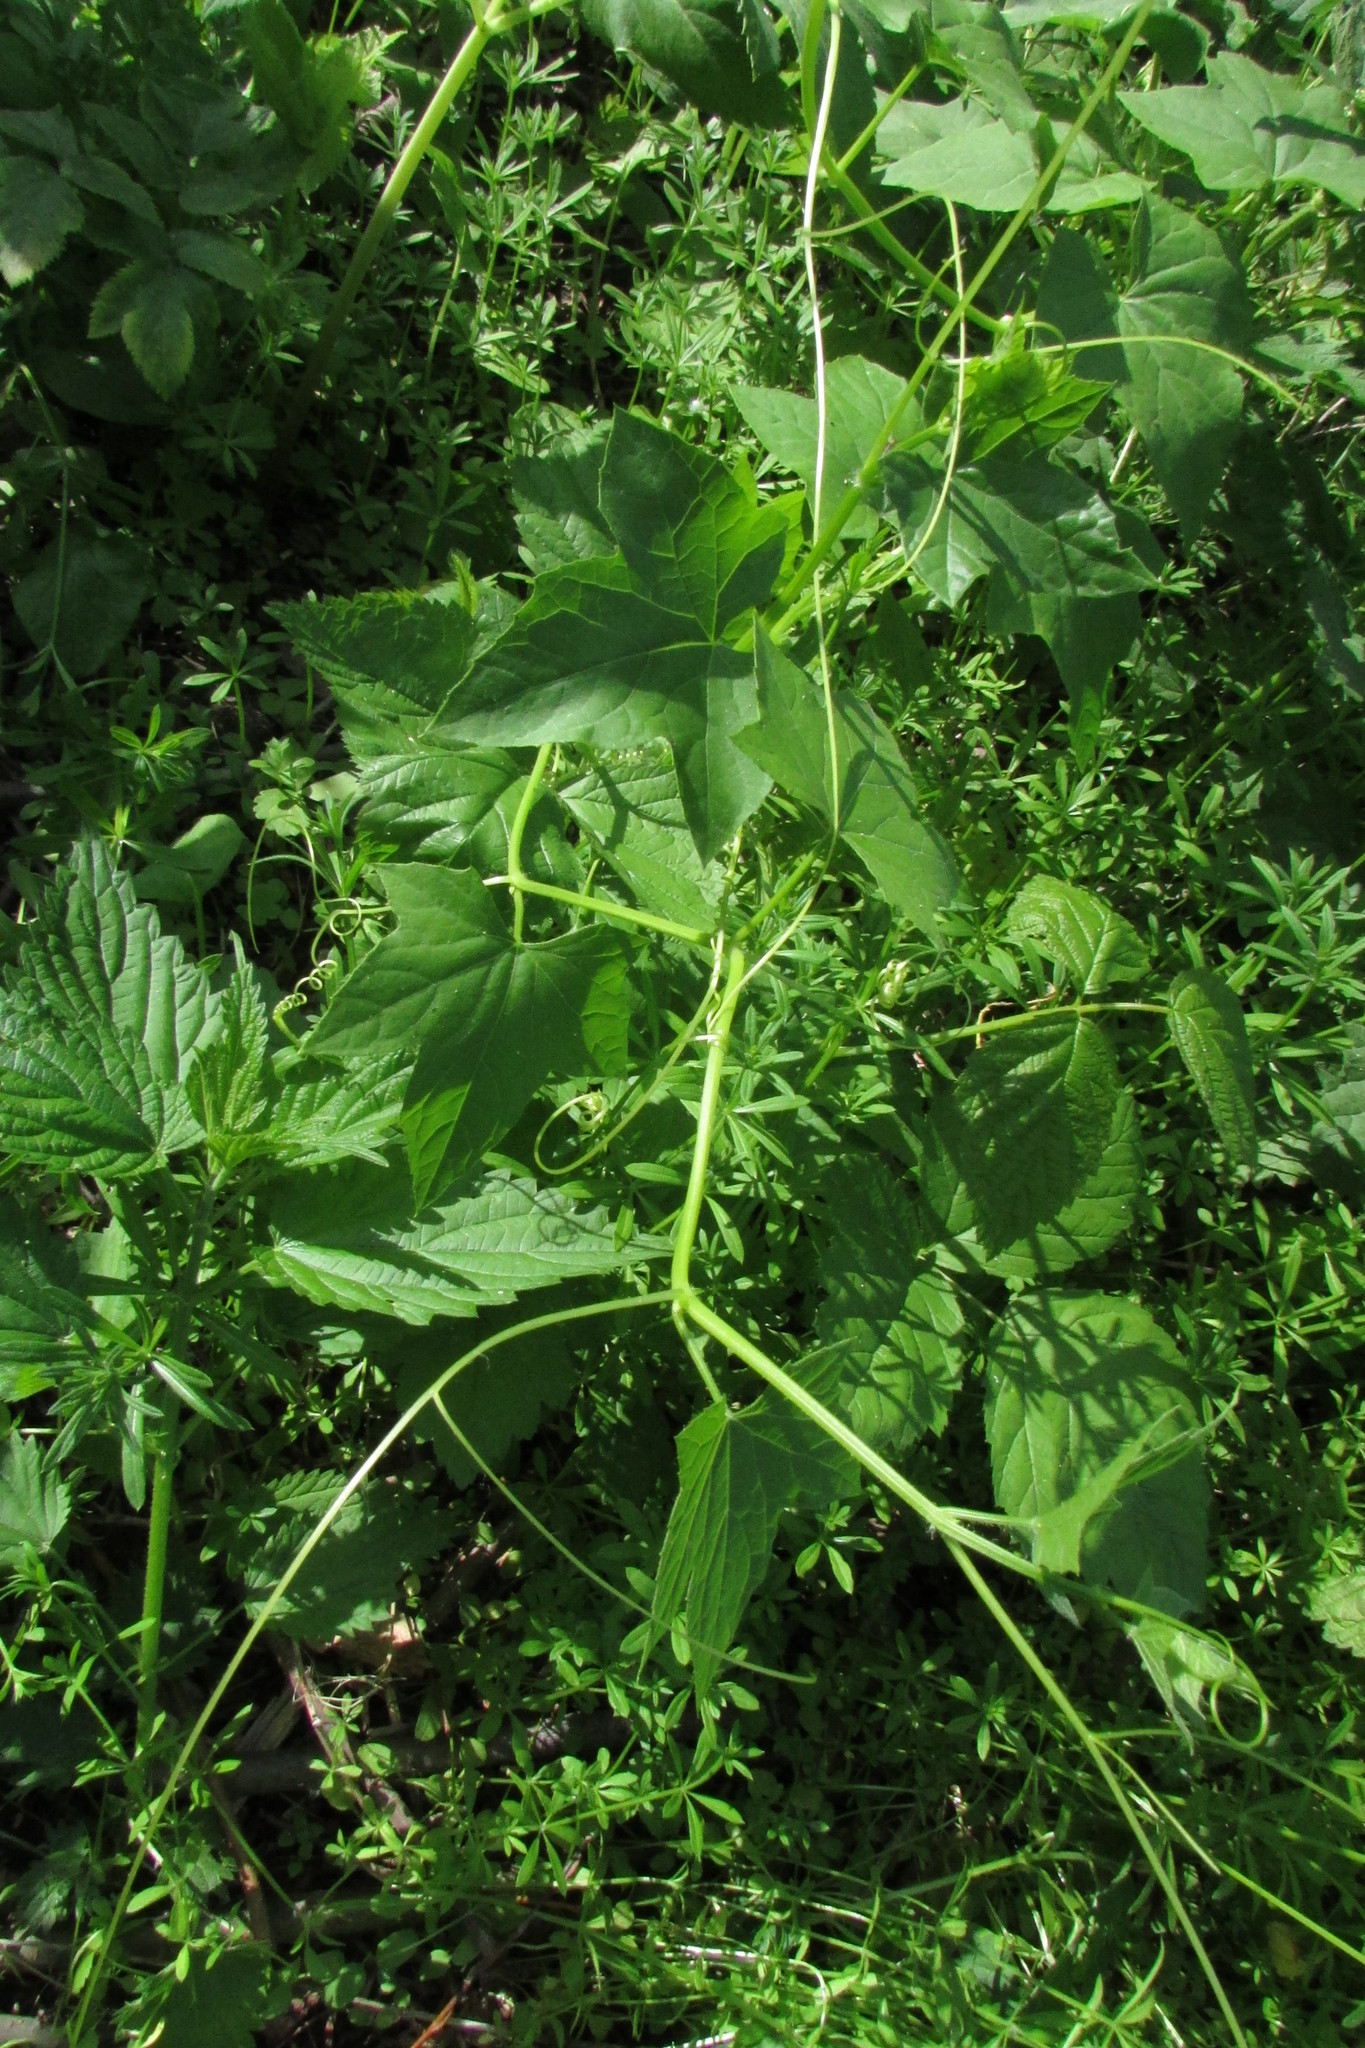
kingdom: Plantae
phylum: Tracheophyta
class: Magnoliopsida
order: Cucurbitales
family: Cucurbitaceae
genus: Echinocystis
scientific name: Echinocystis lobata
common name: Wild cucumber
